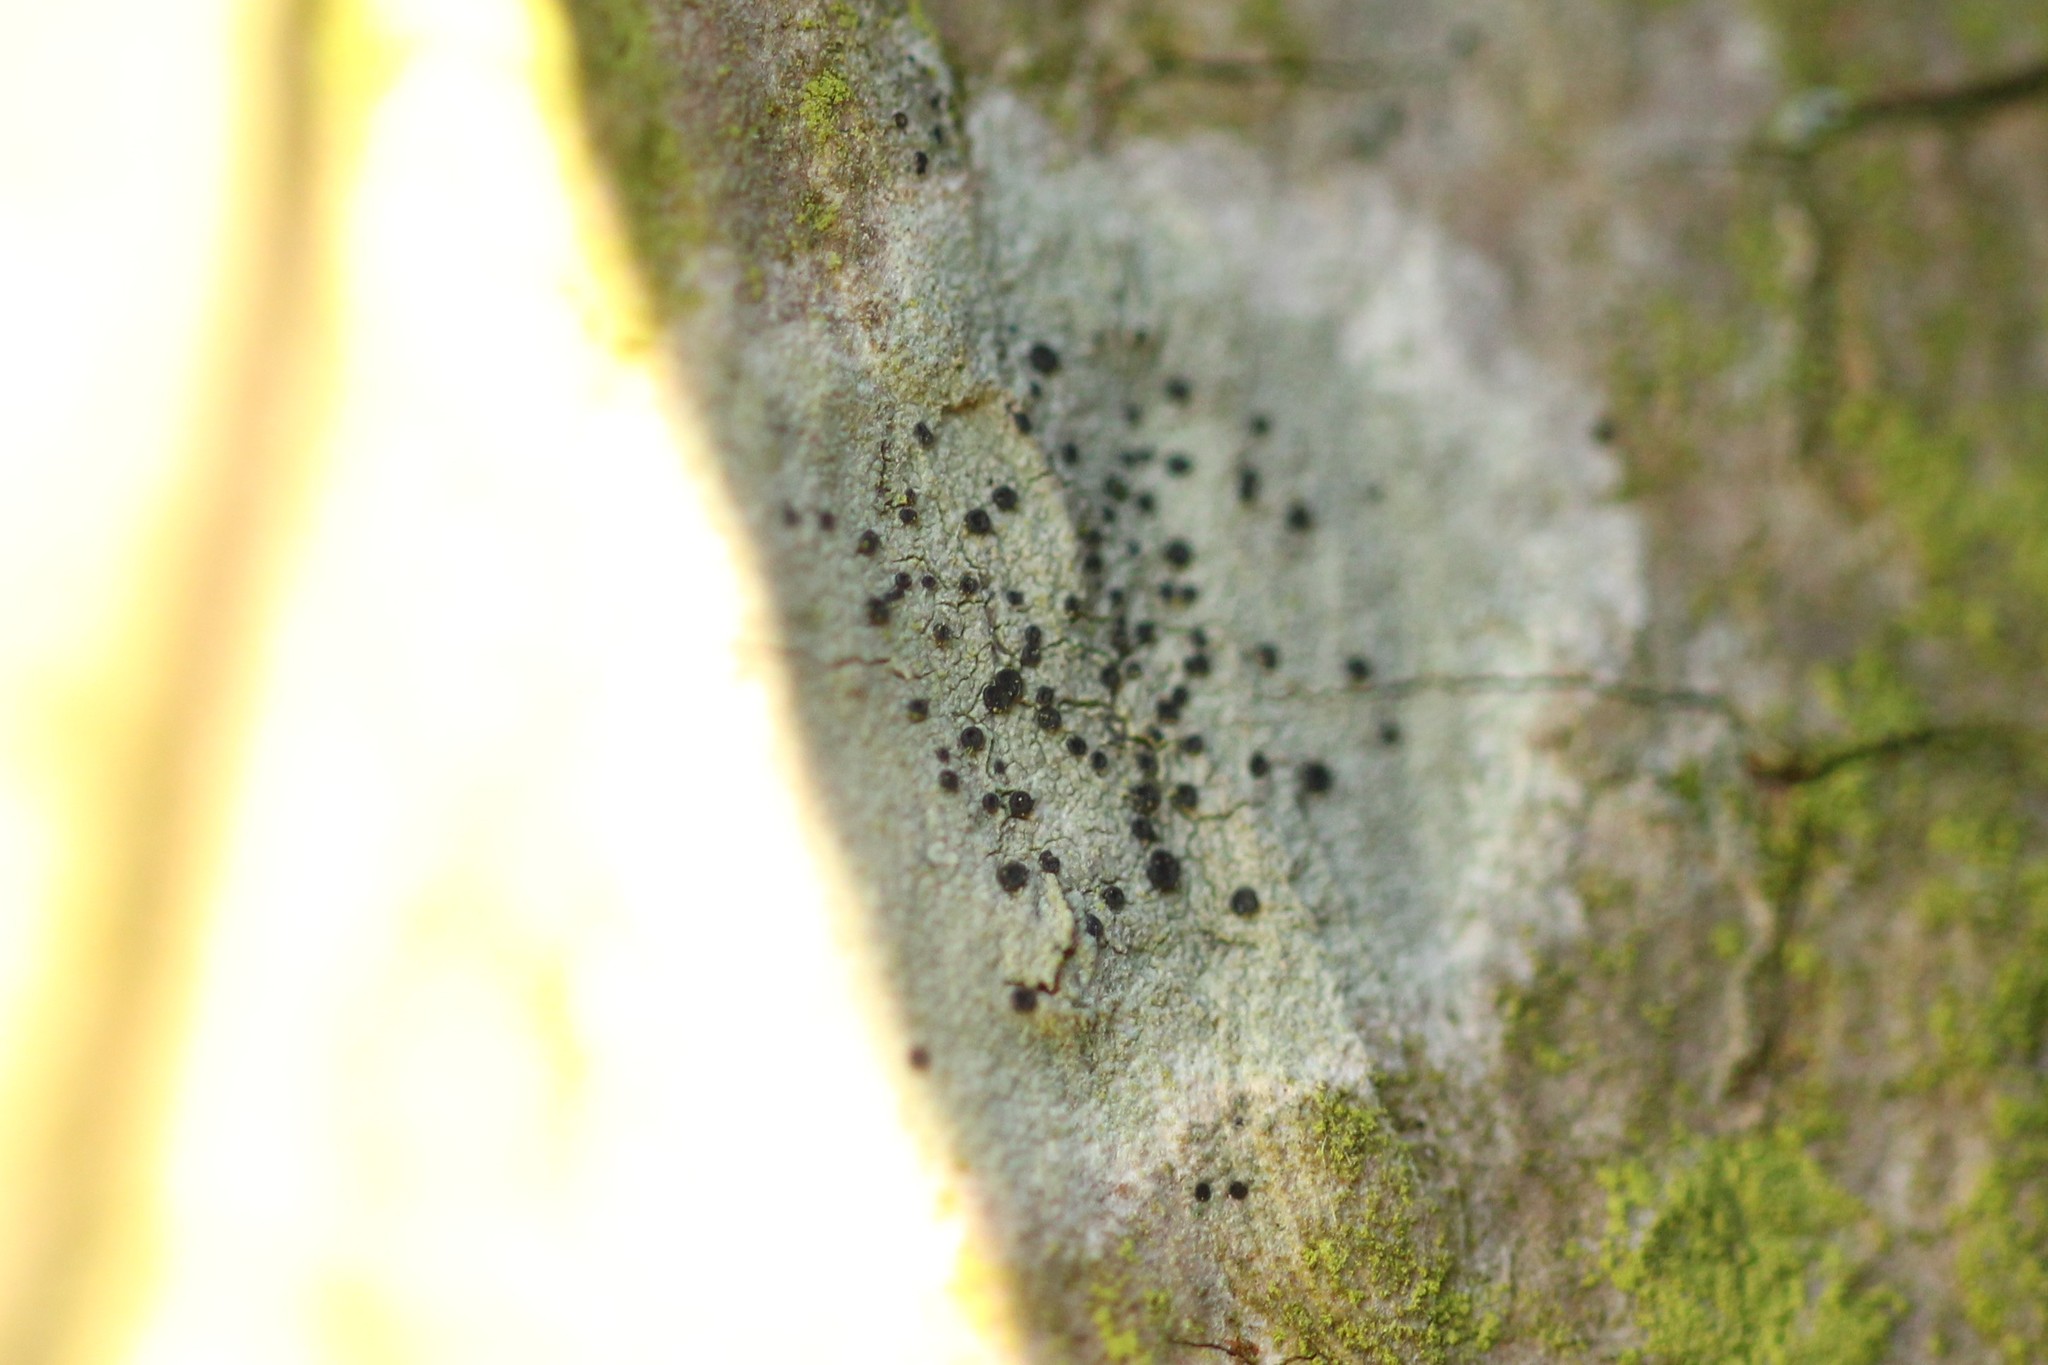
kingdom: Fungi
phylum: Ascomycota
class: Lecanoromycetes
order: Lecanorales
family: Lecanoraceae
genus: Lecidella
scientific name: Lecidella elaeochroma
